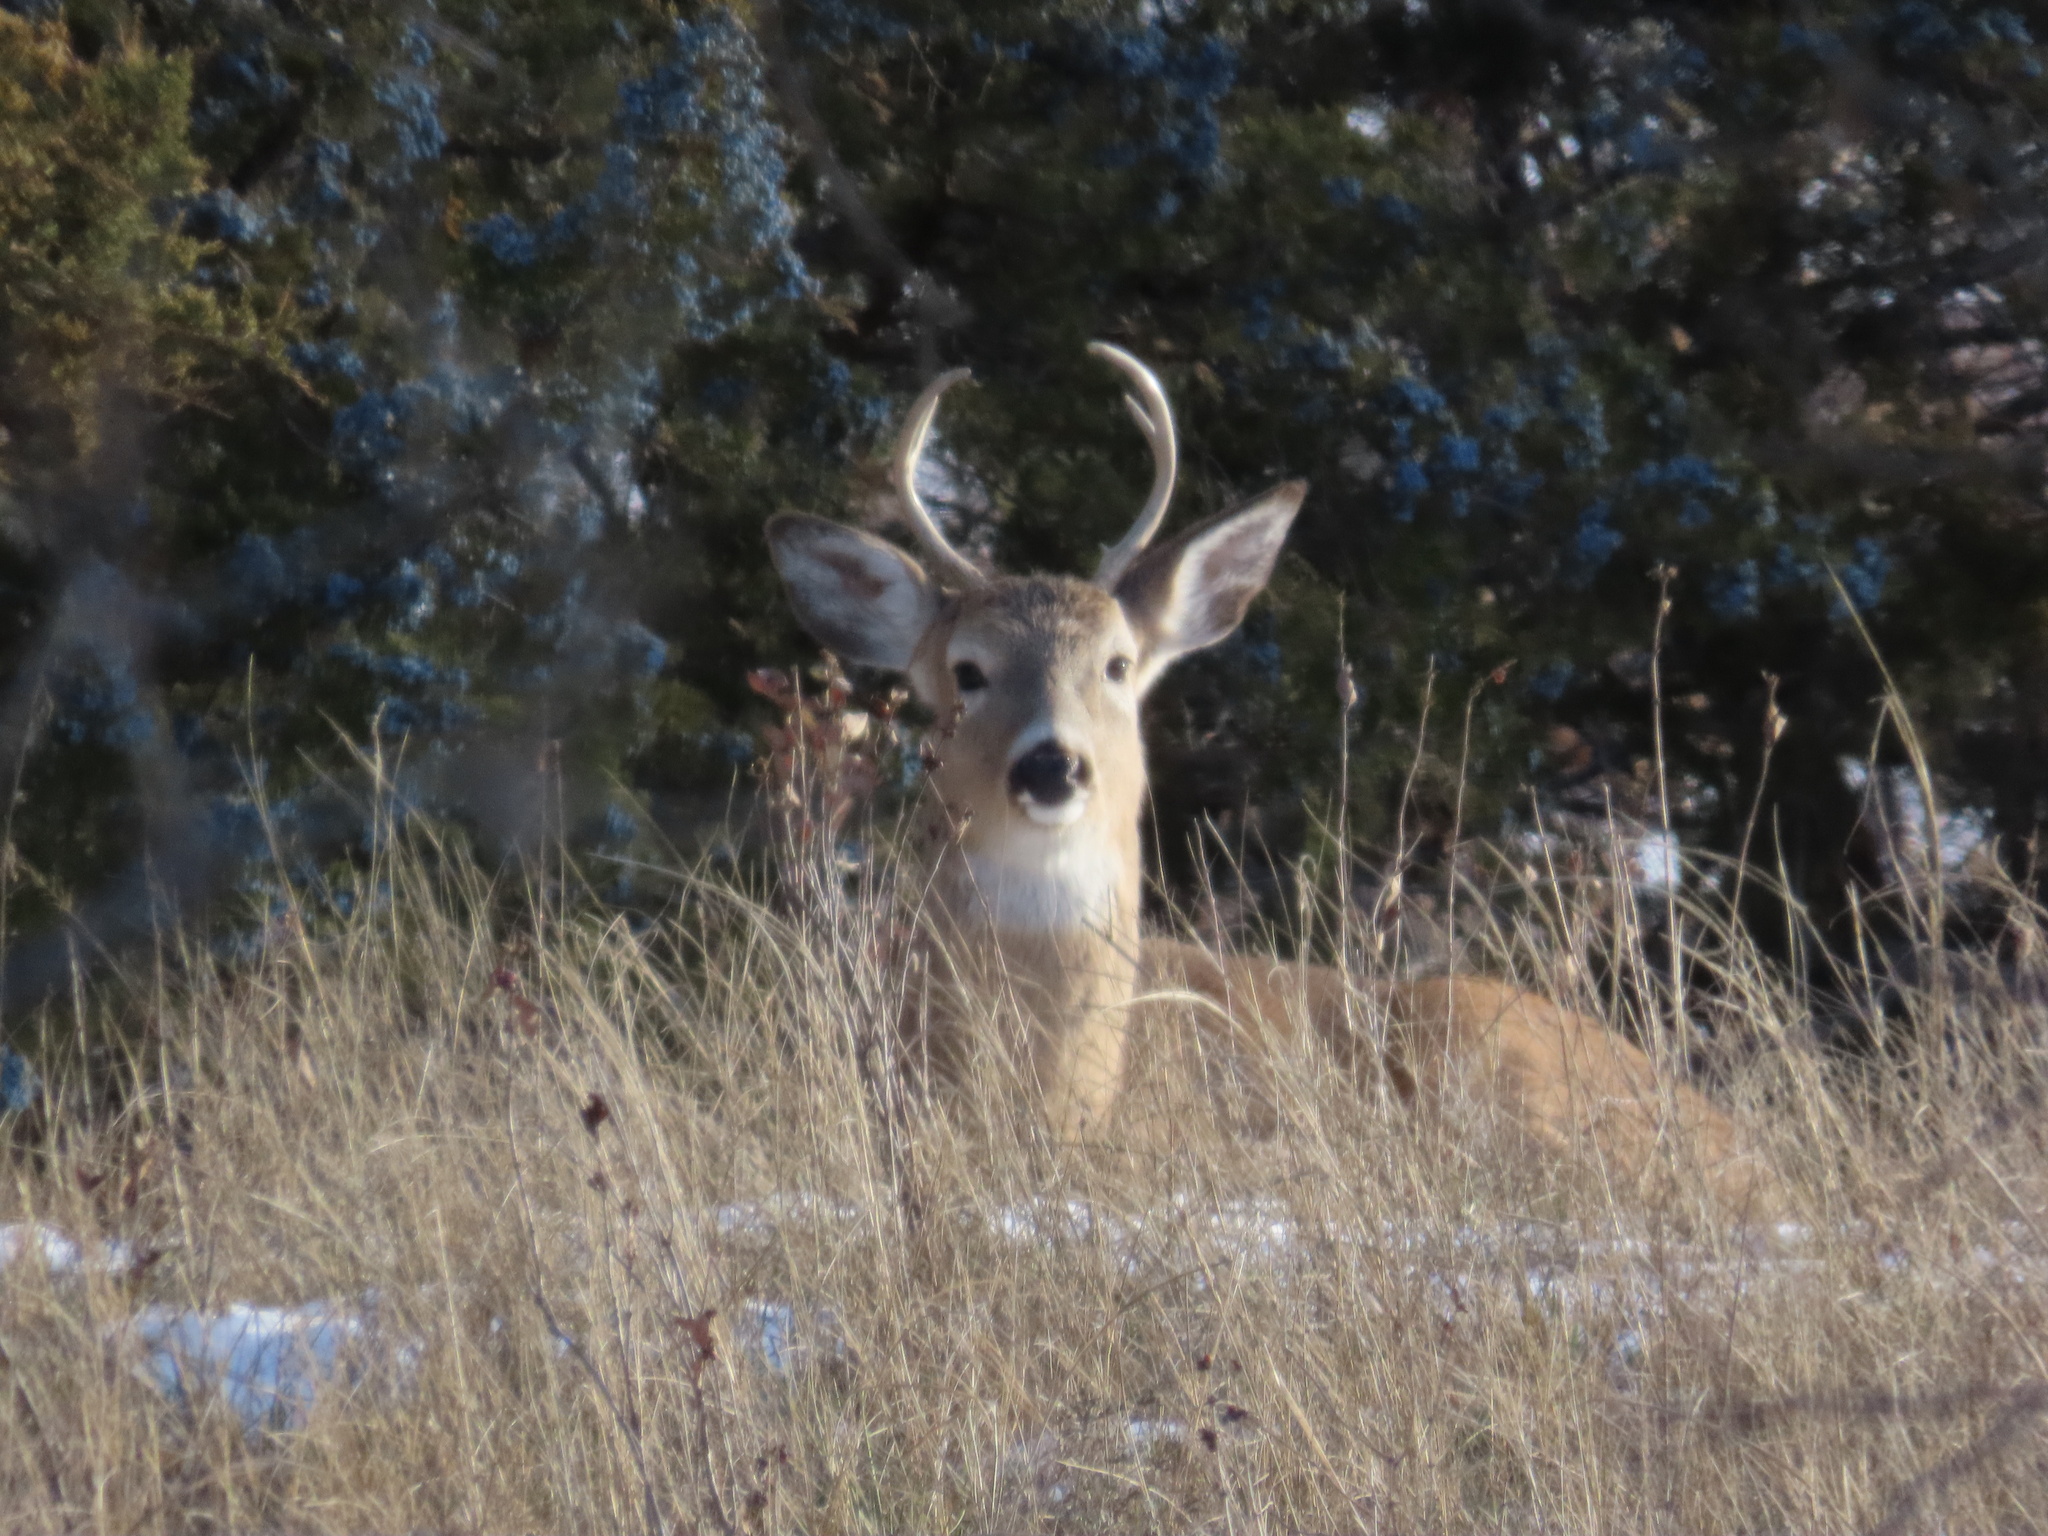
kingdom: Animalia
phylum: Chordata
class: Mammalia
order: Artiodactyla
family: Cervidae
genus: Odocoileus
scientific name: Odocoileus virginianus
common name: White-tailed deer
